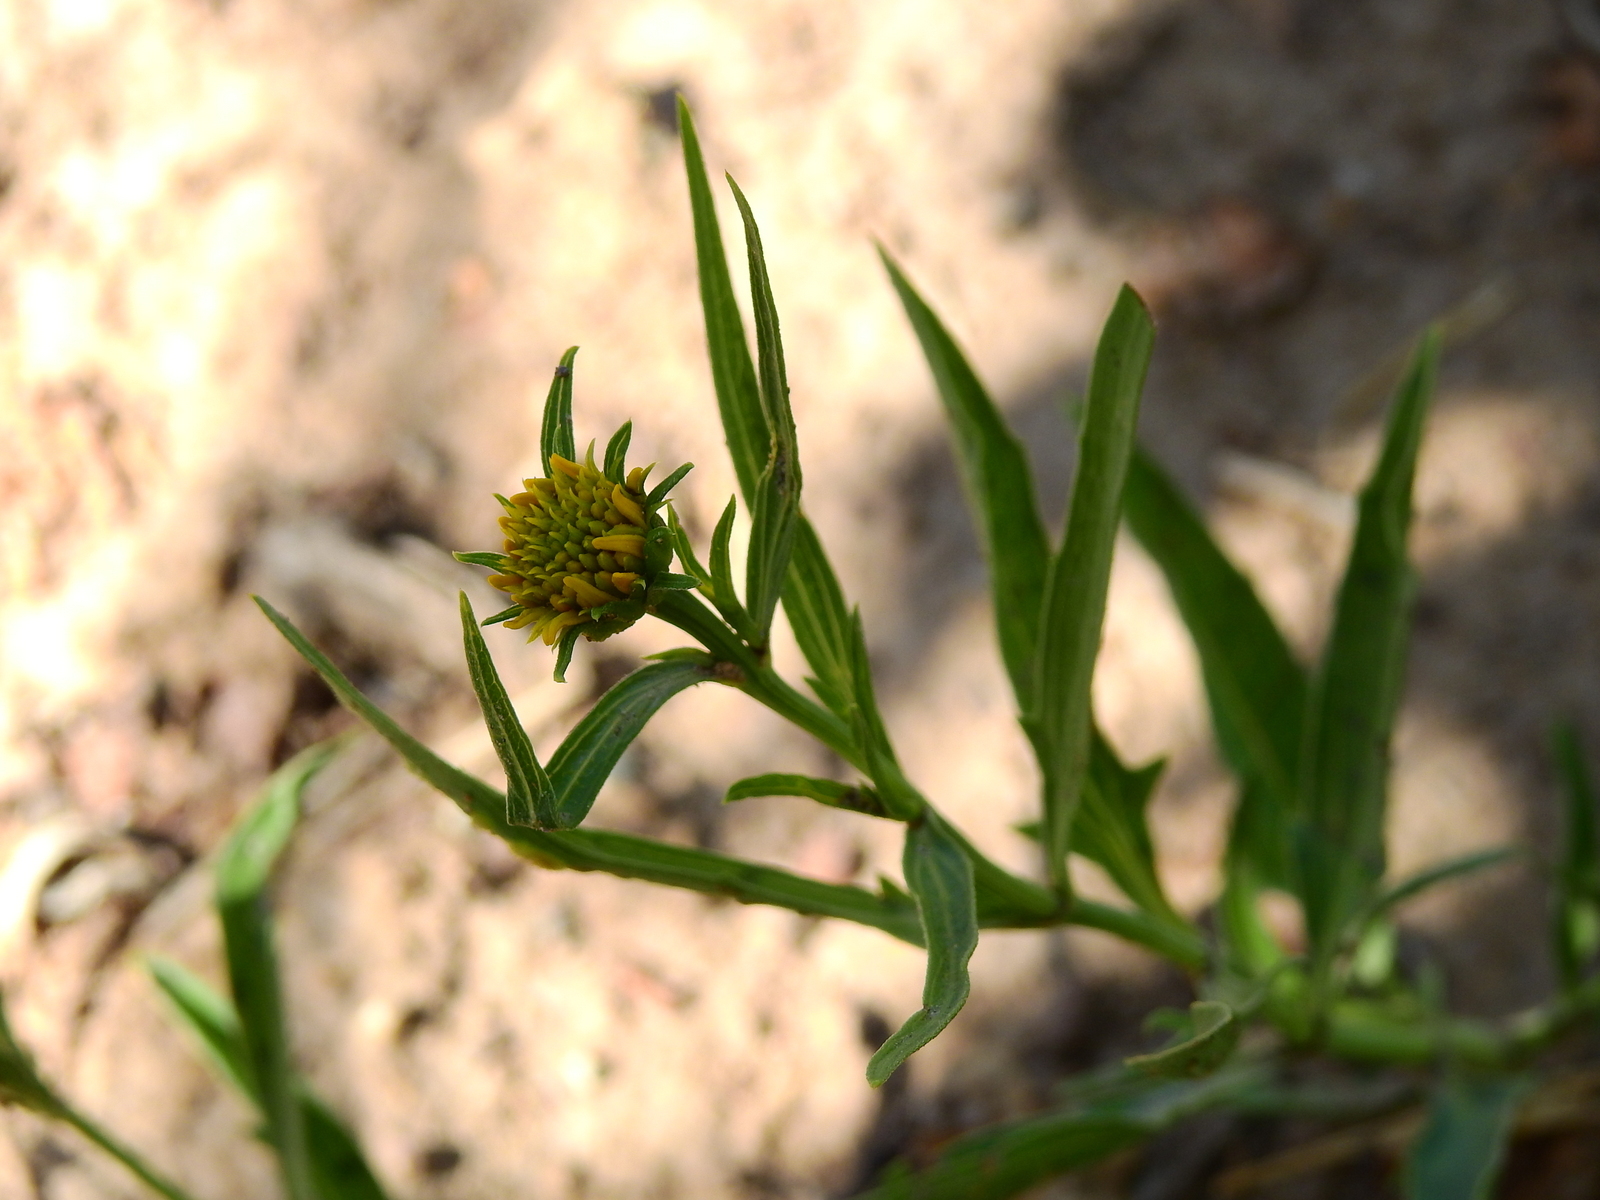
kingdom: Plantae
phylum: Tracheophyta
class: Magnoliopsida
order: Asterales
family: Asteraceae
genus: Pascalia
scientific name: Pascalia glauca
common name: Beach creeping oxeye
